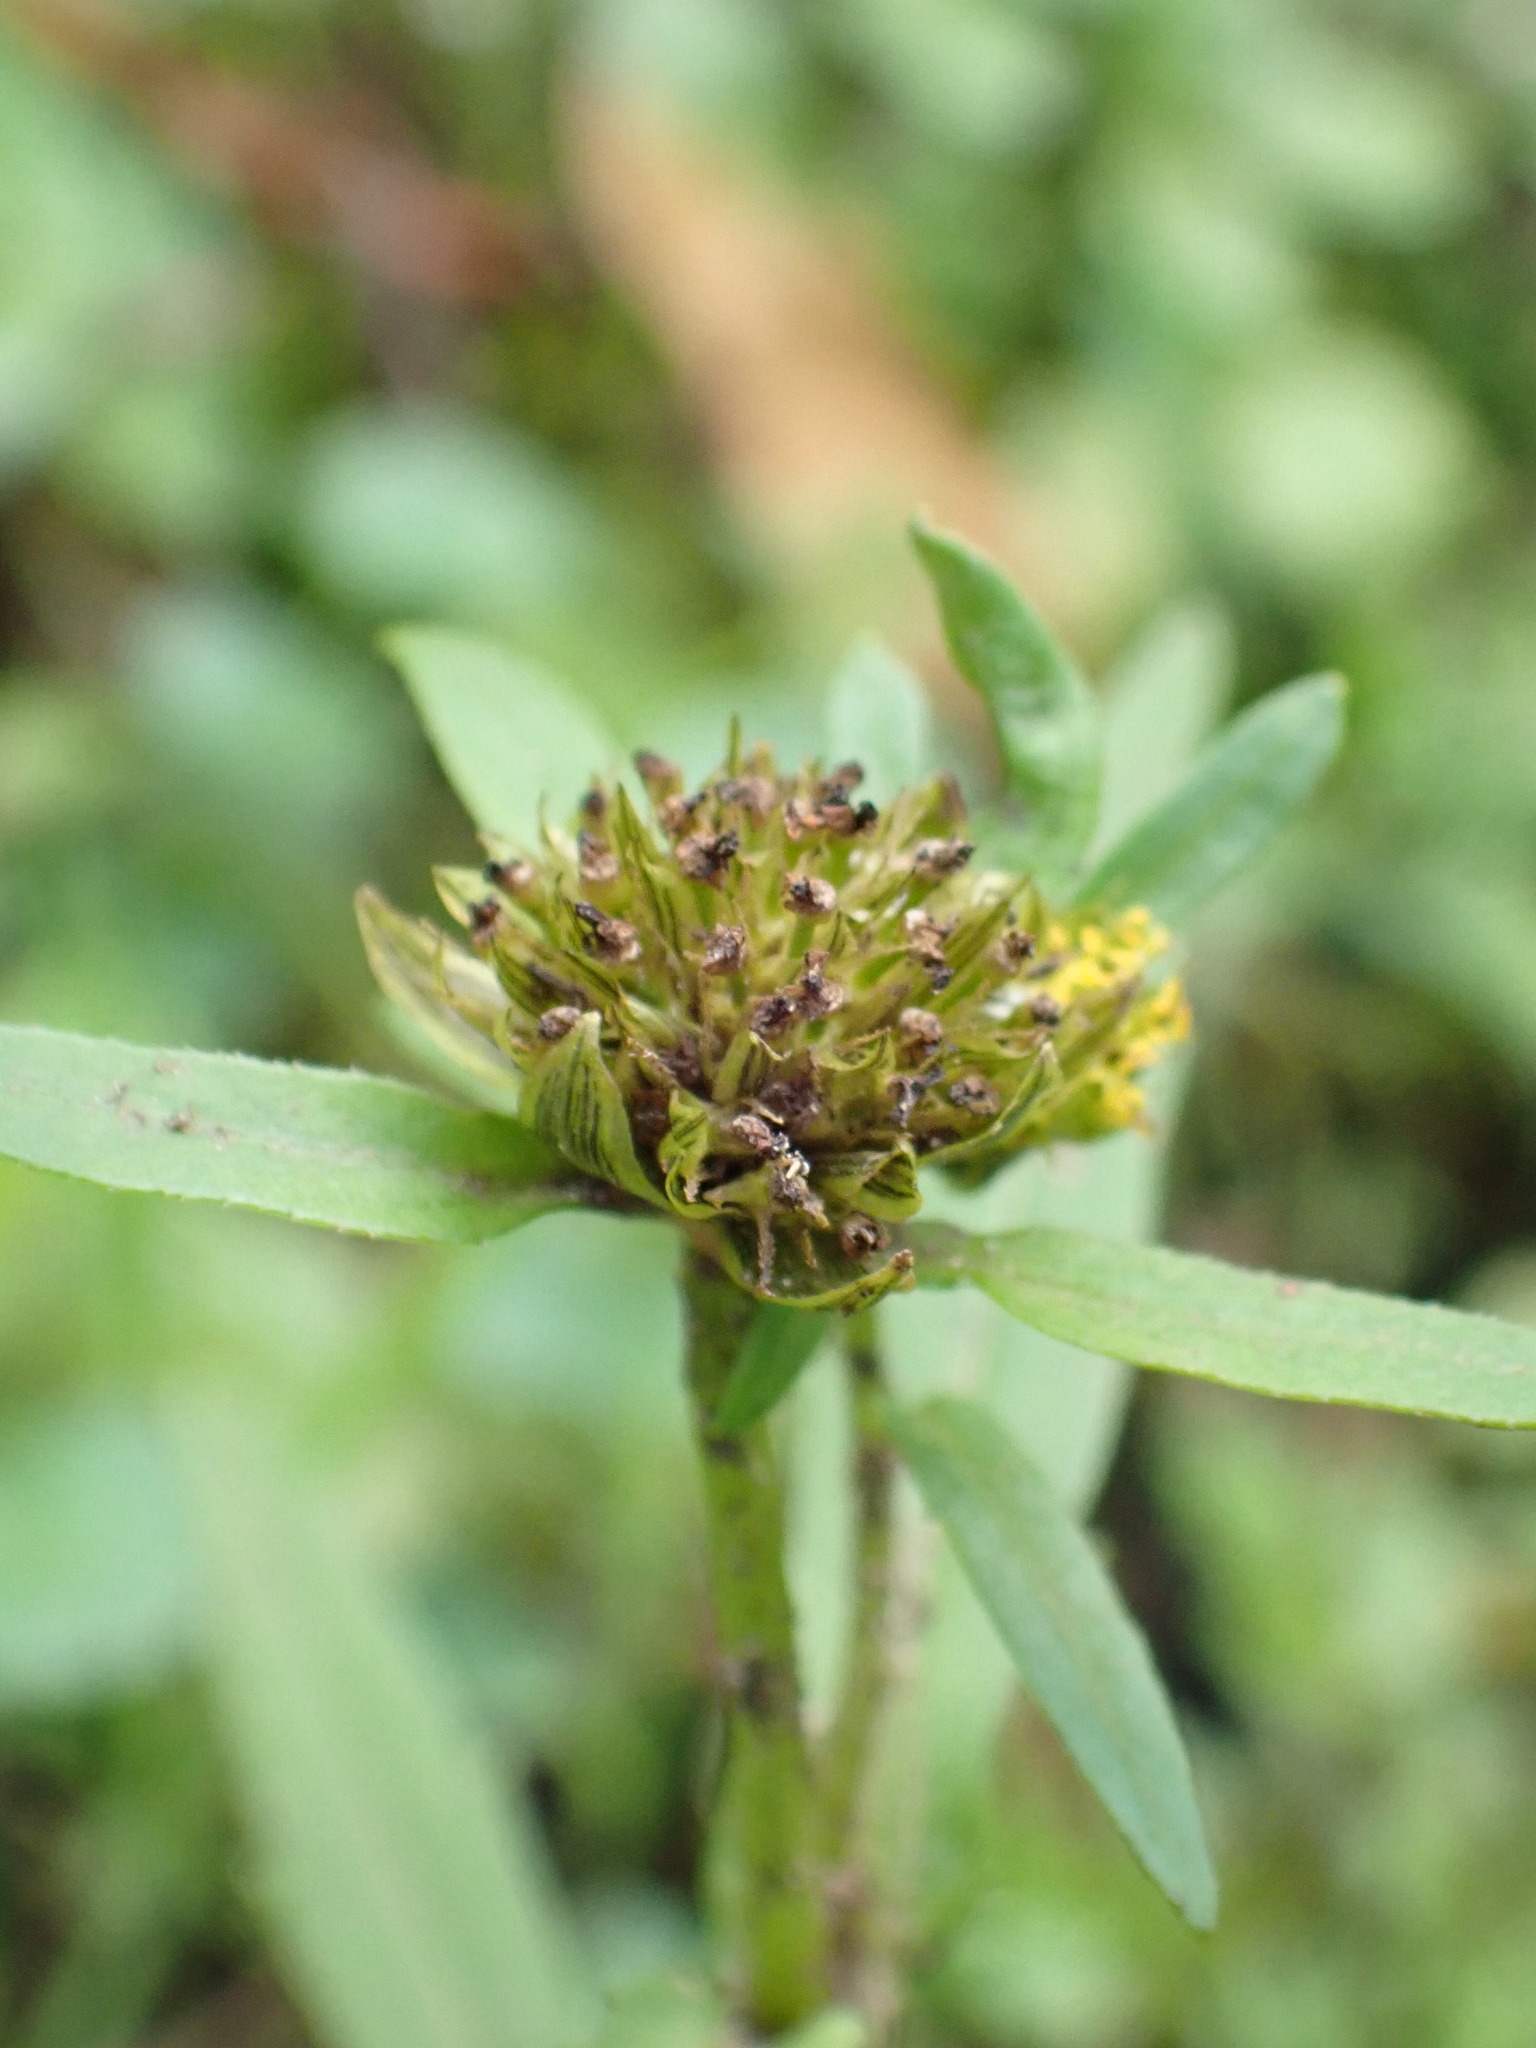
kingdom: Plantae
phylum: Tracheophyta
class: Magnoliopsida
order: Asterales
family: Asteraceae
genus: Bidens
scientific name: Bidens cernua
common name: Nodding bur-marigold
